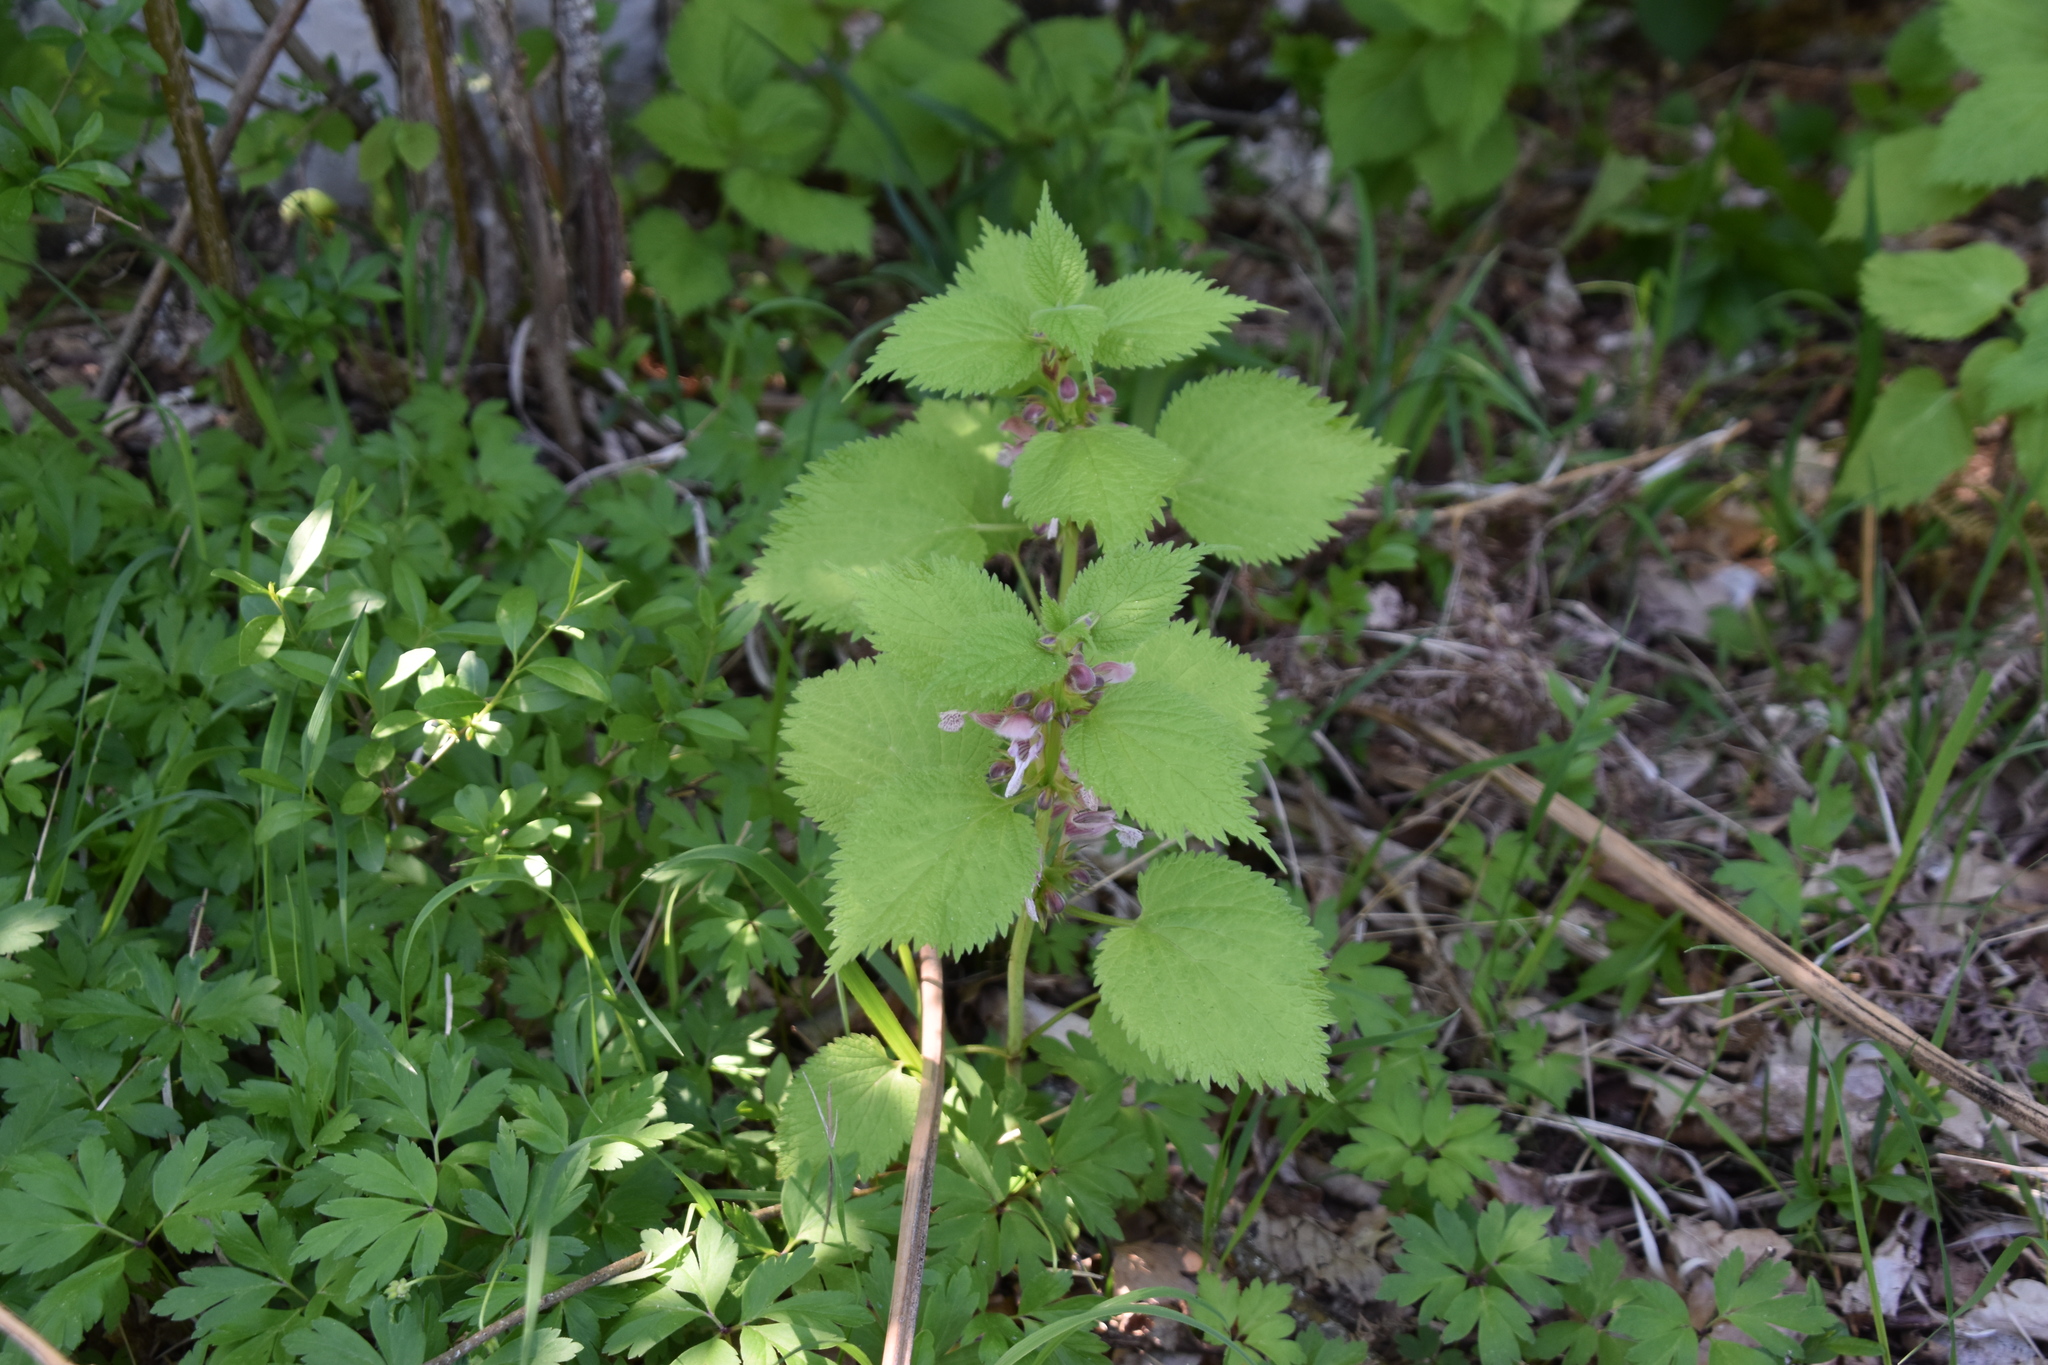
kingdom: Plantae
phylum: Tracheophyta
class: Magnoliopsida
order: Lamiales
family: Lamiaceae
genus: Lamium
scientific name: Lamium orvala
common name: Balm-leaved archangel
